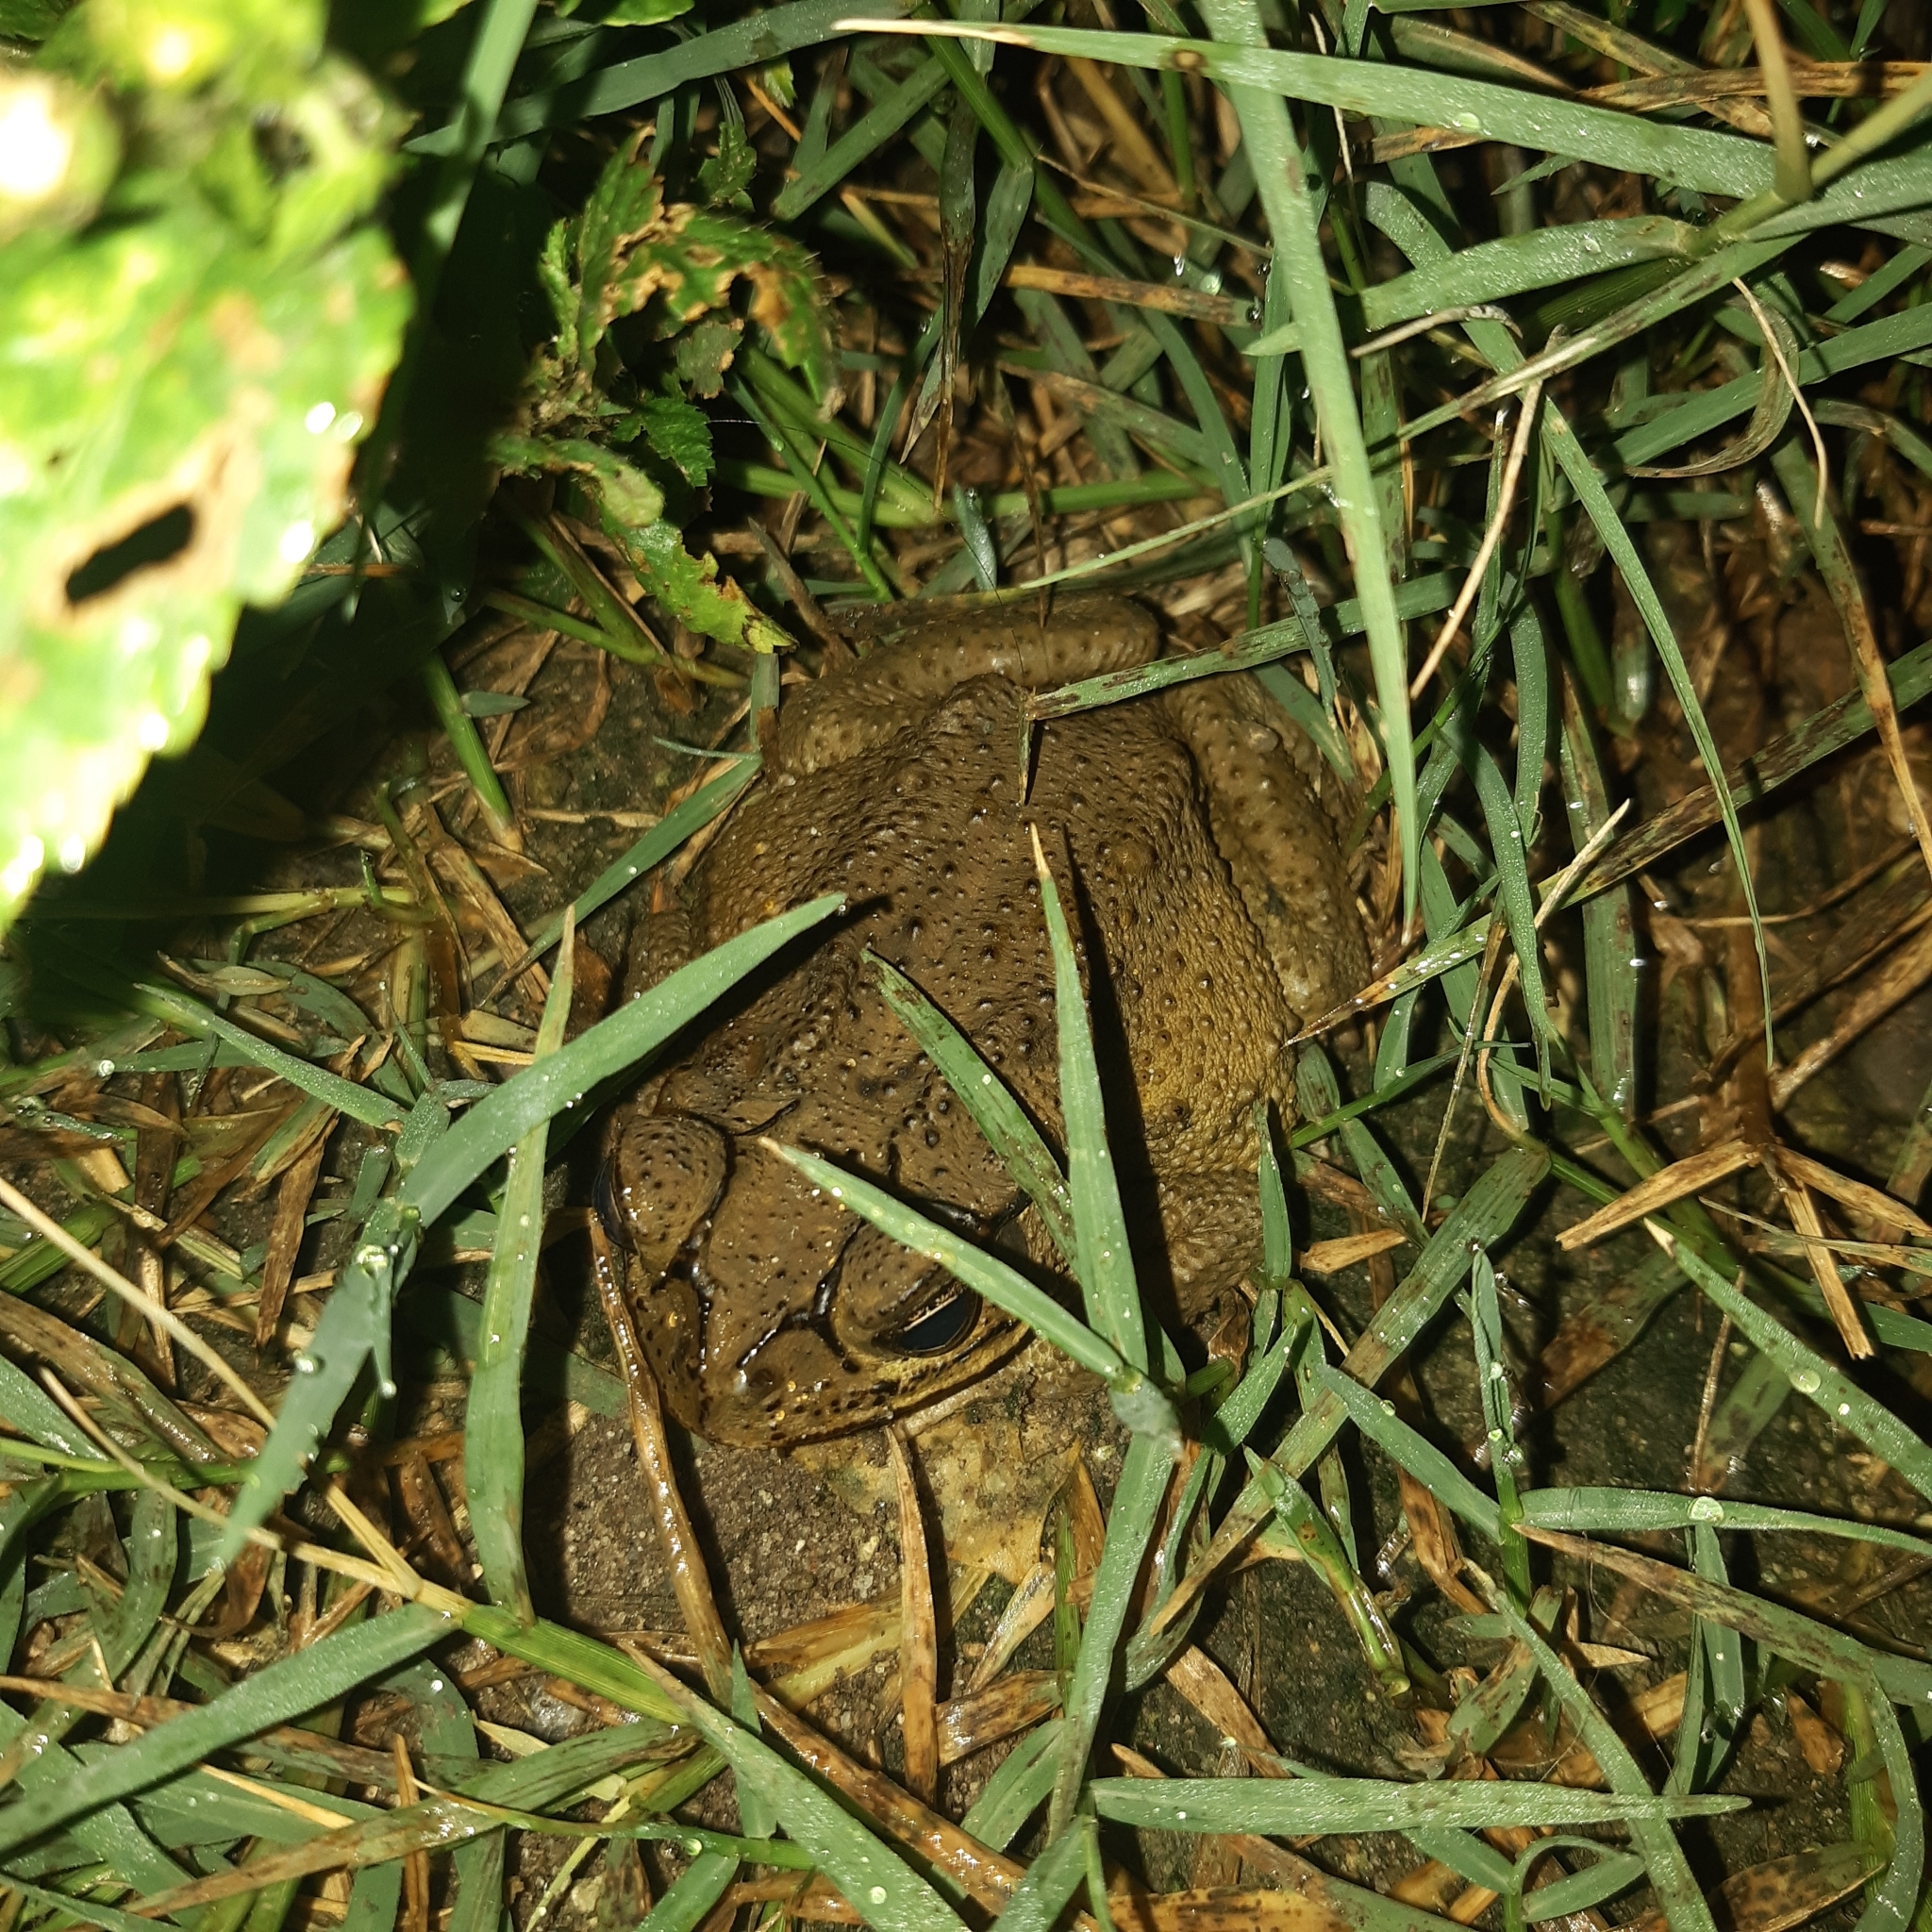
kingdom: Animalia
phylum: Chordata
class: Amphibia
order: Anura
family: Bufonidae
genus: Incilius
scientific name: Incilius luetkenii
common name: Yellow toad
